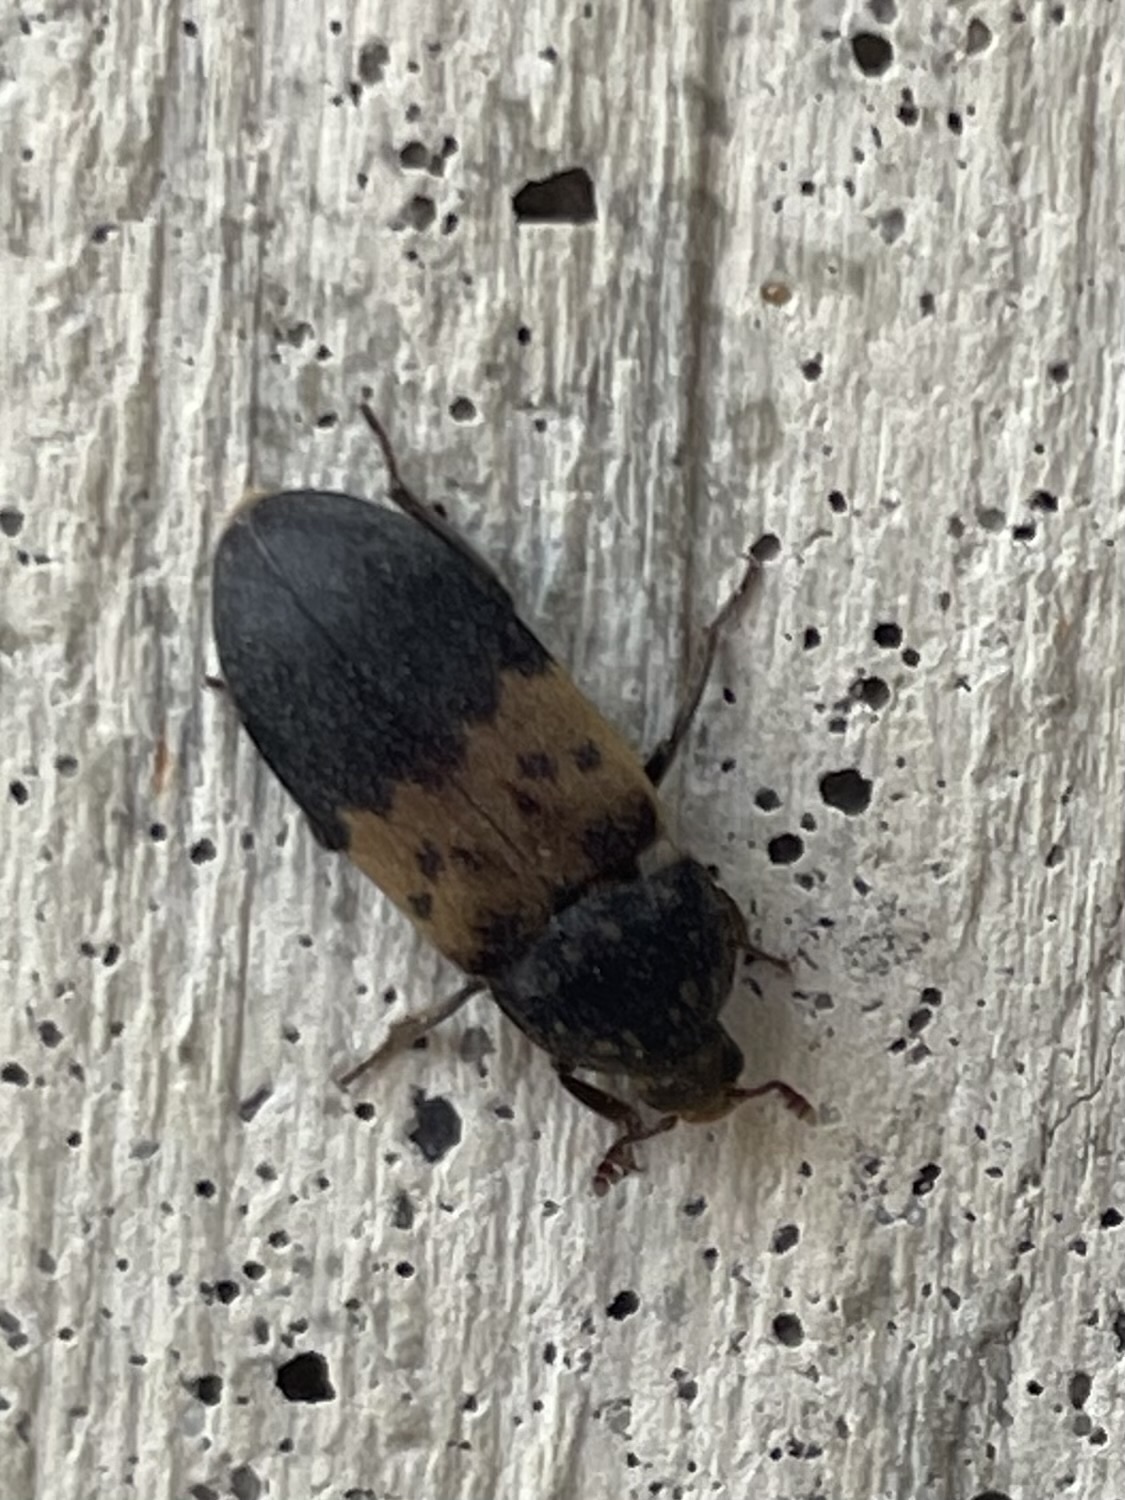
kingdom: Animalia
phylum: Arthropoda
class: Insecta
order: Coleoptera
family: Dermestidae
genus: Dermestes
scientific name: Dermestes lardarius
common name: Larder beetle
